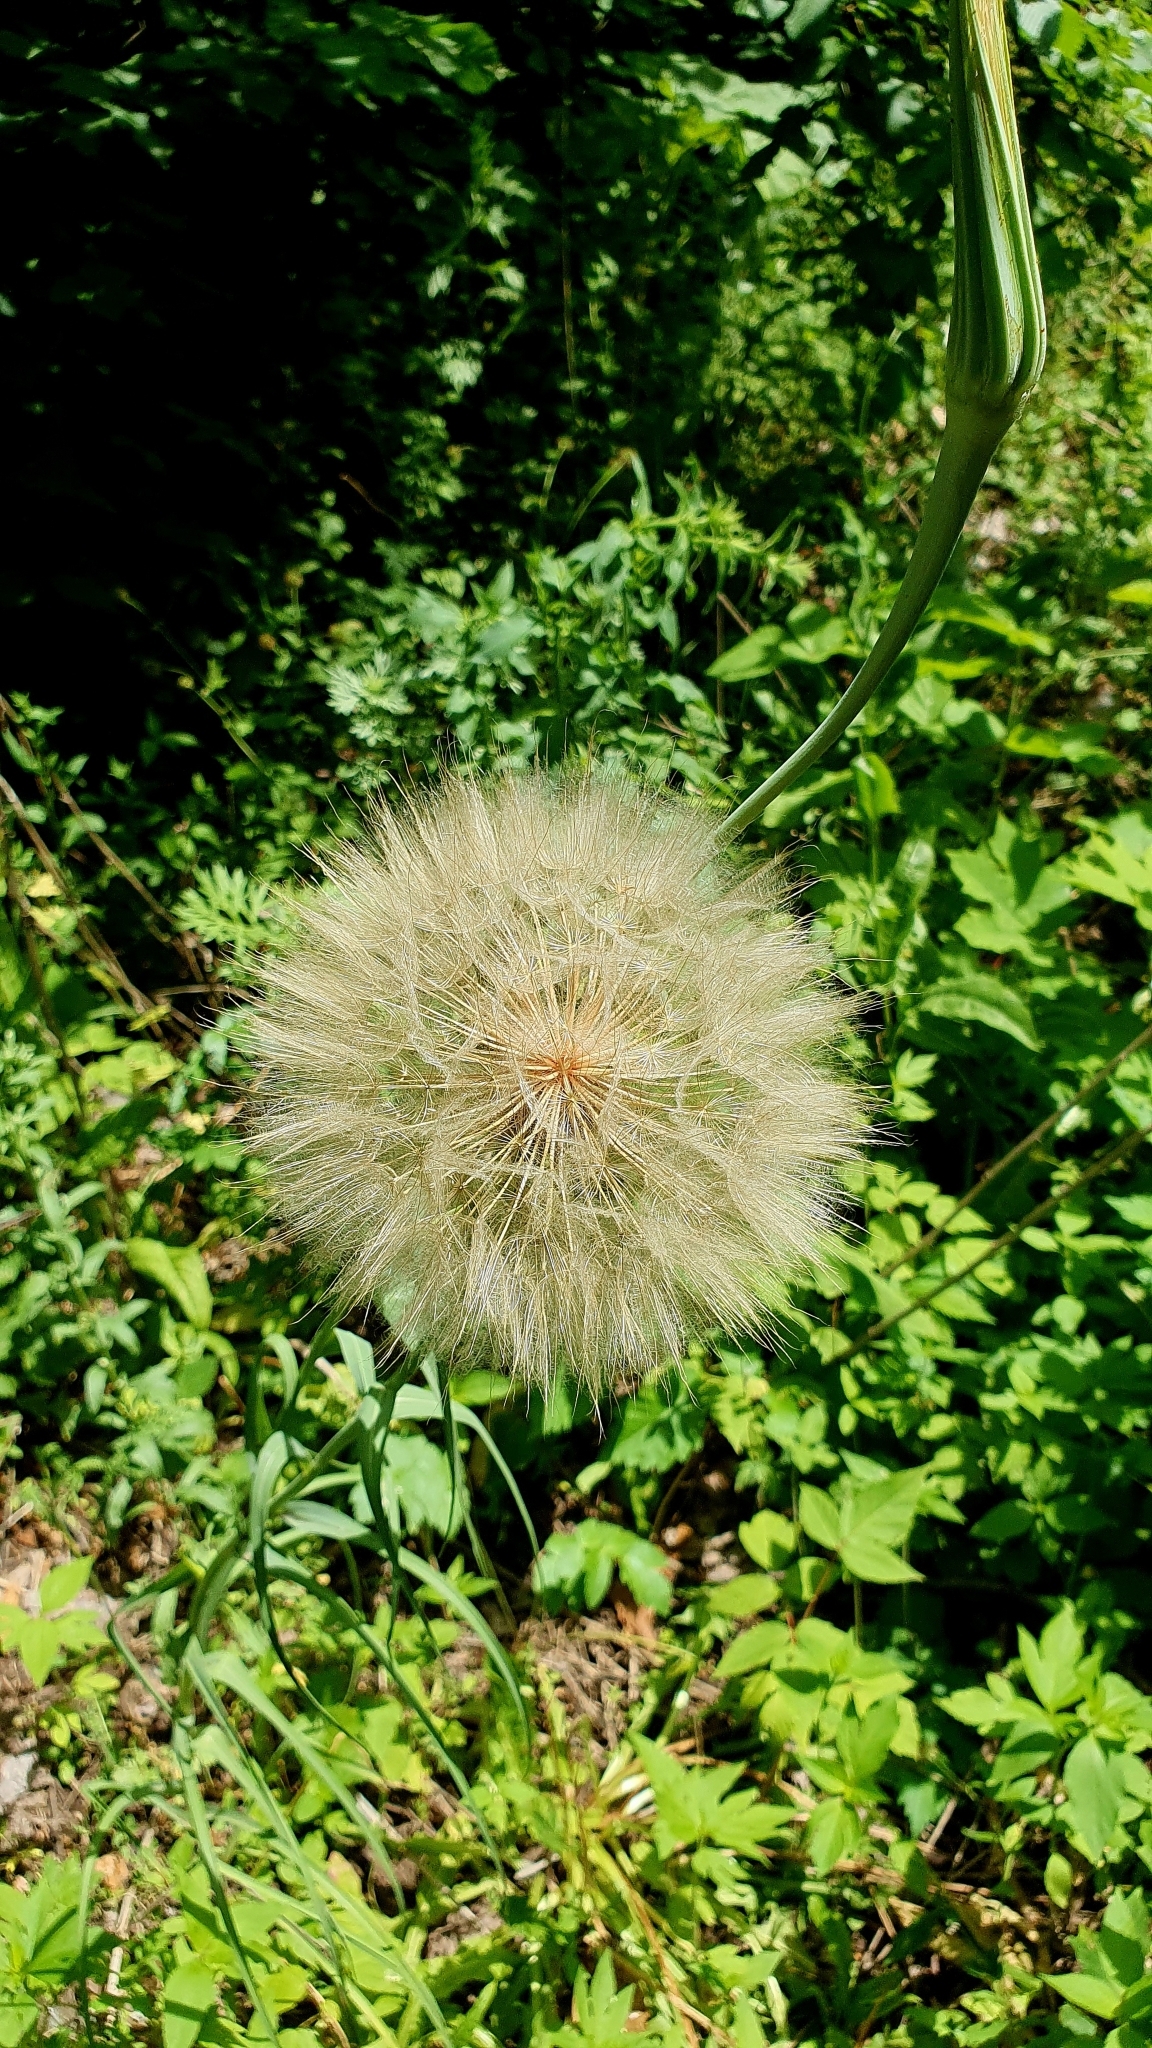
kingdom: Plantae
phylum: Tracheophyta
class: Magnoliopsida
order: Asterales
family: Asteraceae
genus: Tragopogon
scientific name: Tragopogon dubius
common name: Yellow salsify
